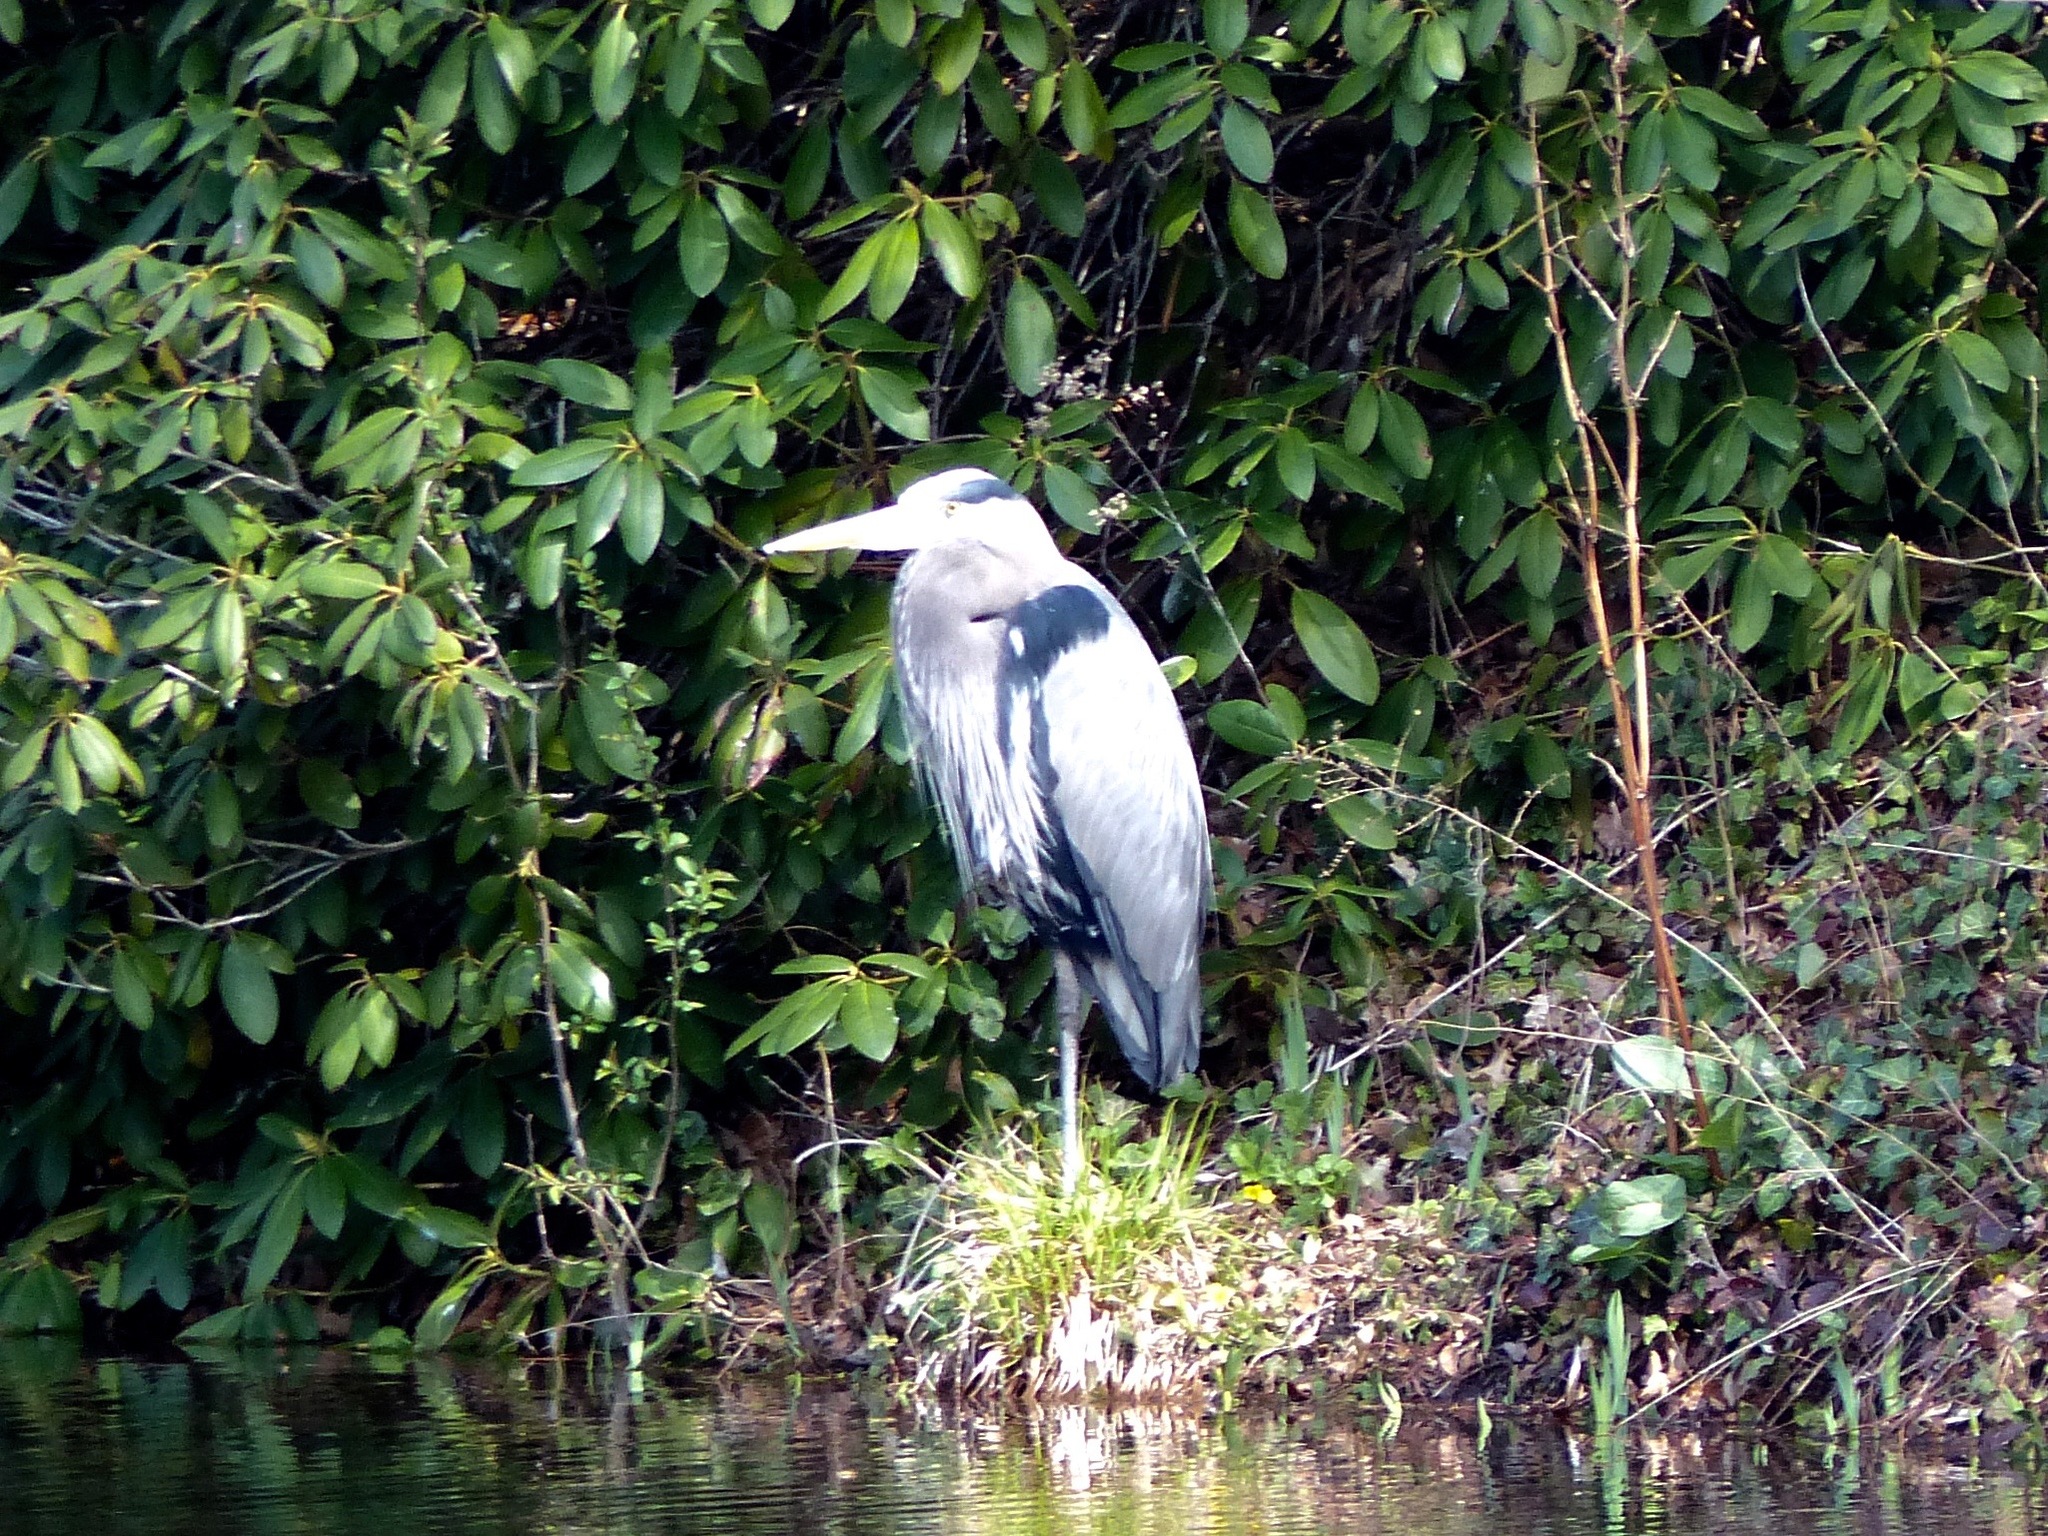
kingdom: Animalia
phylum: Chordata
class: Aves
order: Pelecaniformes
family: Ardeidae
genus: Ardea
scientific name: Ardea herodias
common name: Great blue heron
